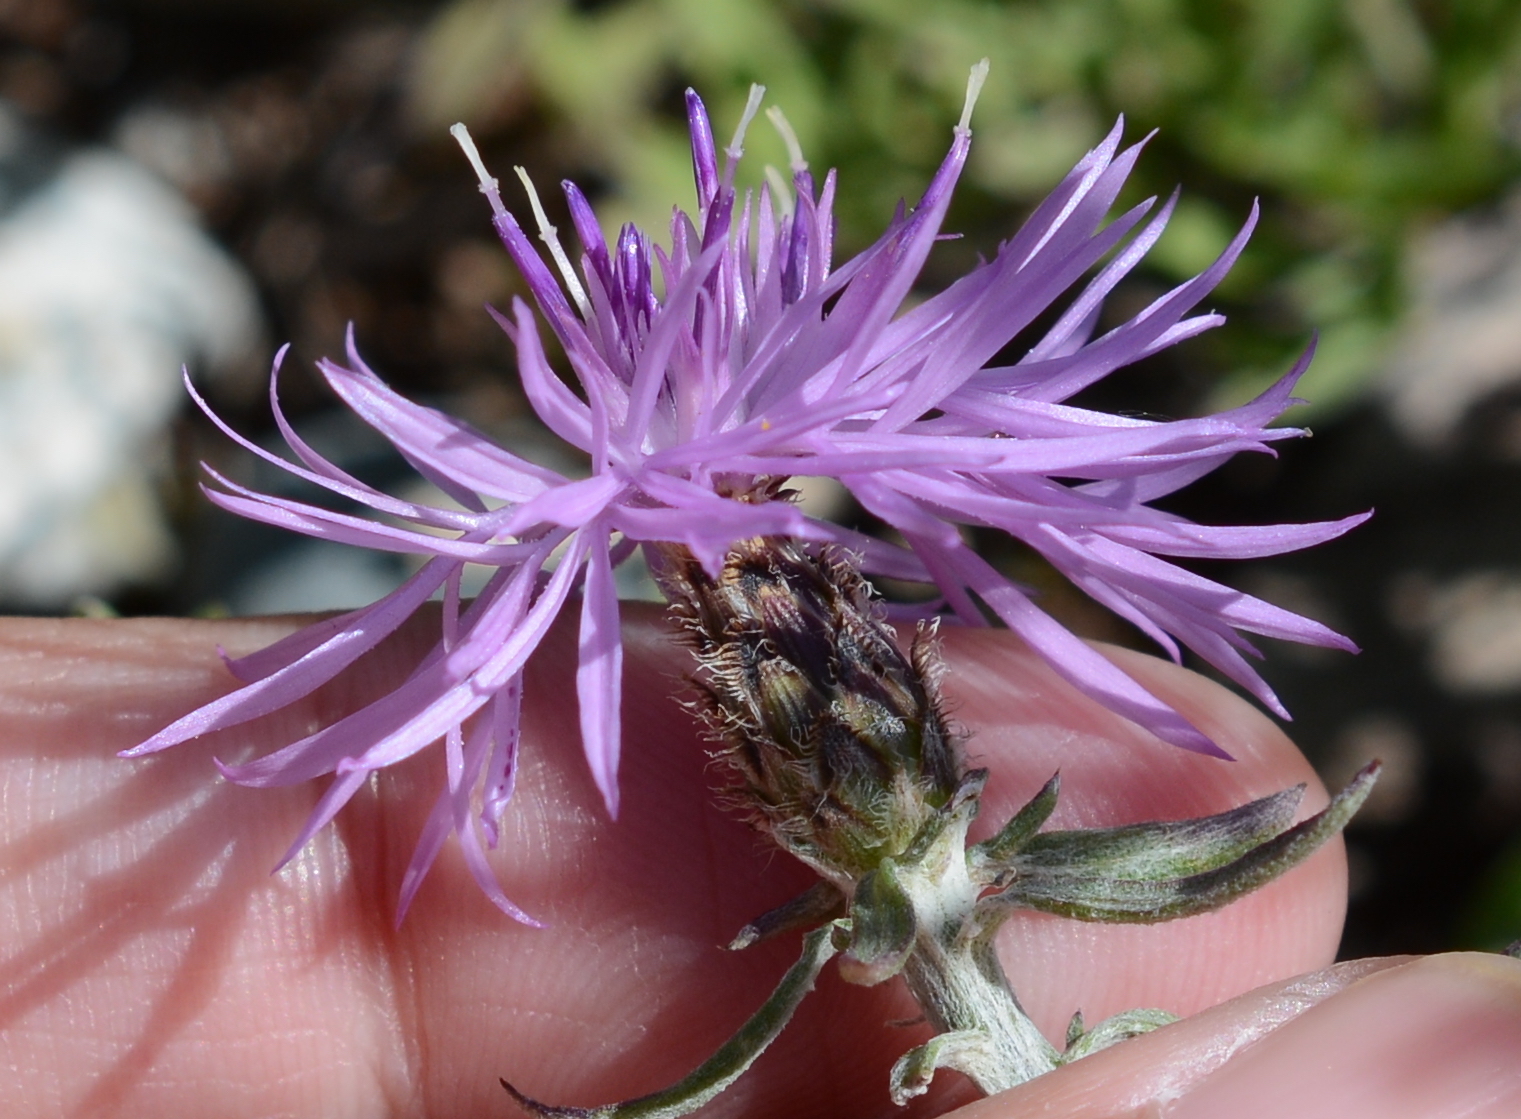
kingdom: Plantae
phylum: Tracheophyta
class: Magnoliopsida
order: Asterales
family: Asteraceae
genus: Centaurea
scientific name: Centaurea stoebe
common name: Spotted knapweed
